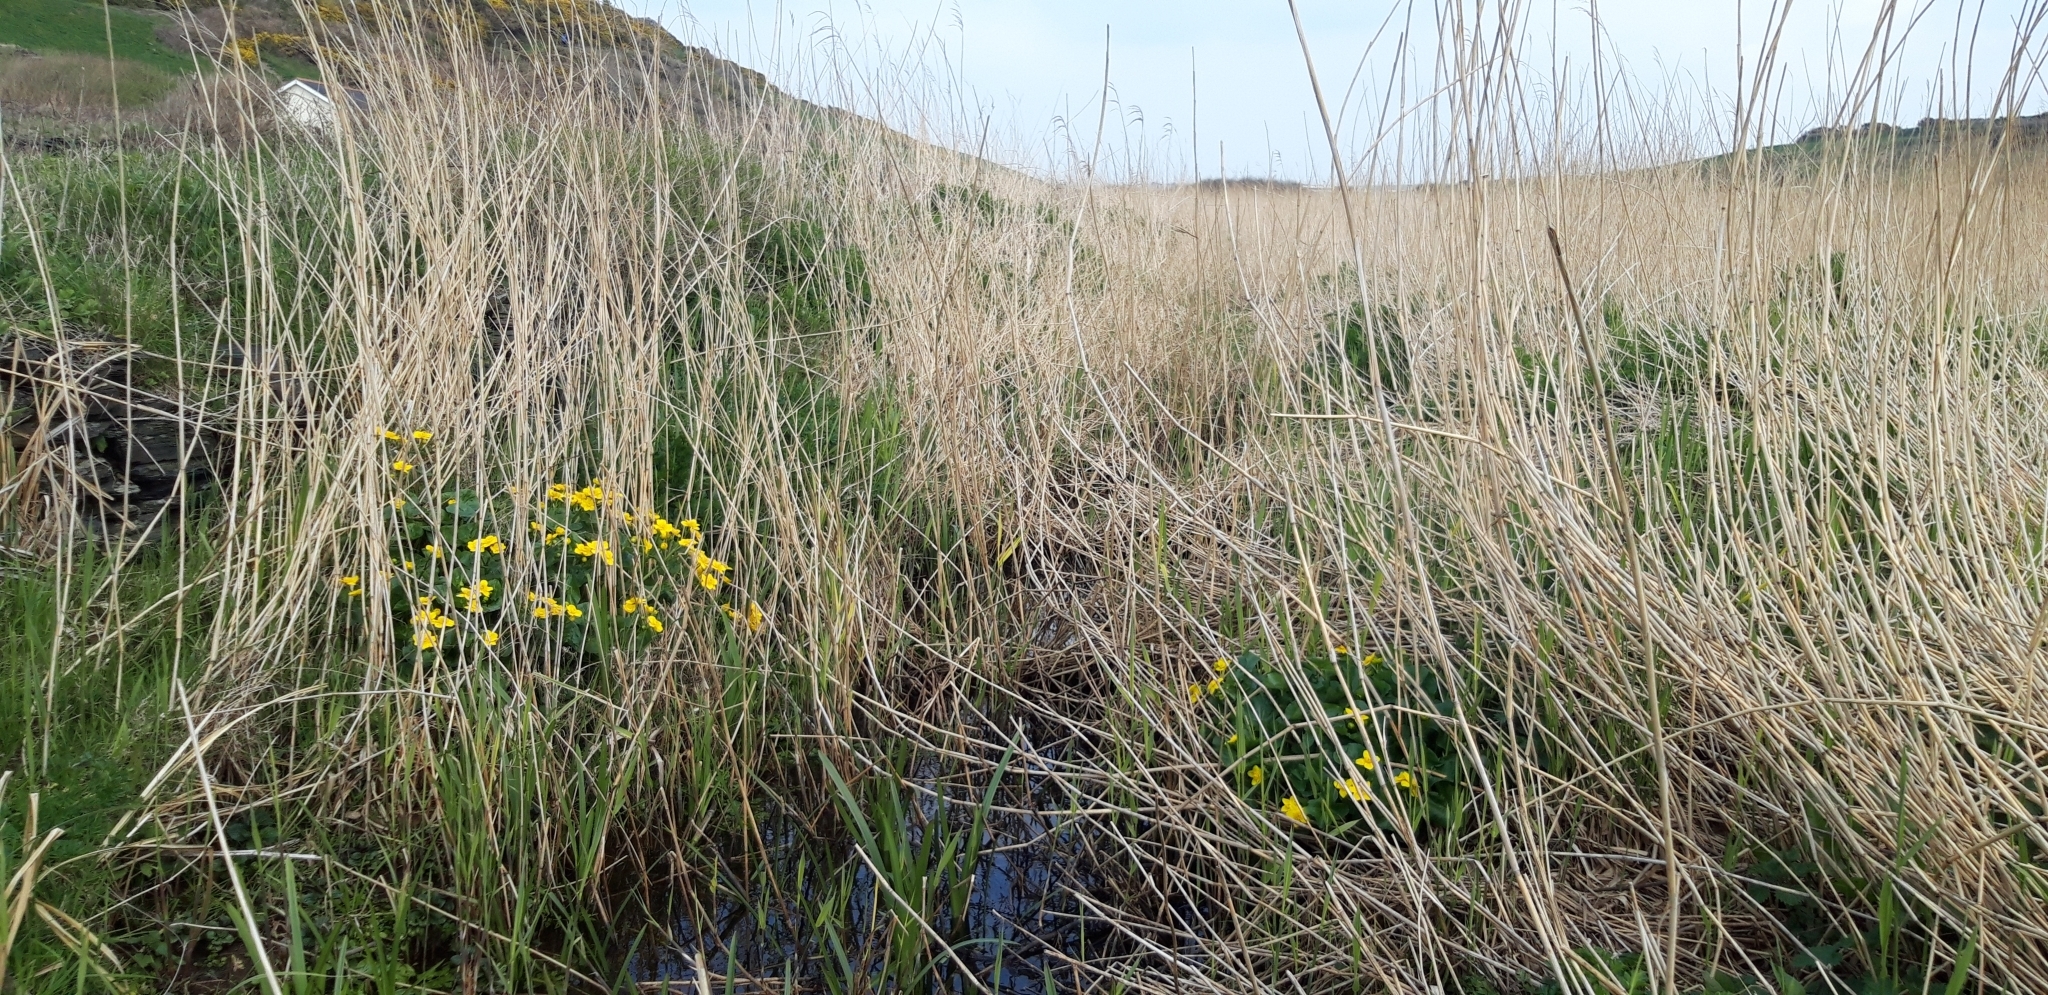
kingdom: Plantae
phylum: Tracheophyta
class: Magnoliopsida
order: Ranunculales
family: Ranunculaceae
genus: Caltha
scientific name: Caltha palustris
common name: Marsh marigold
